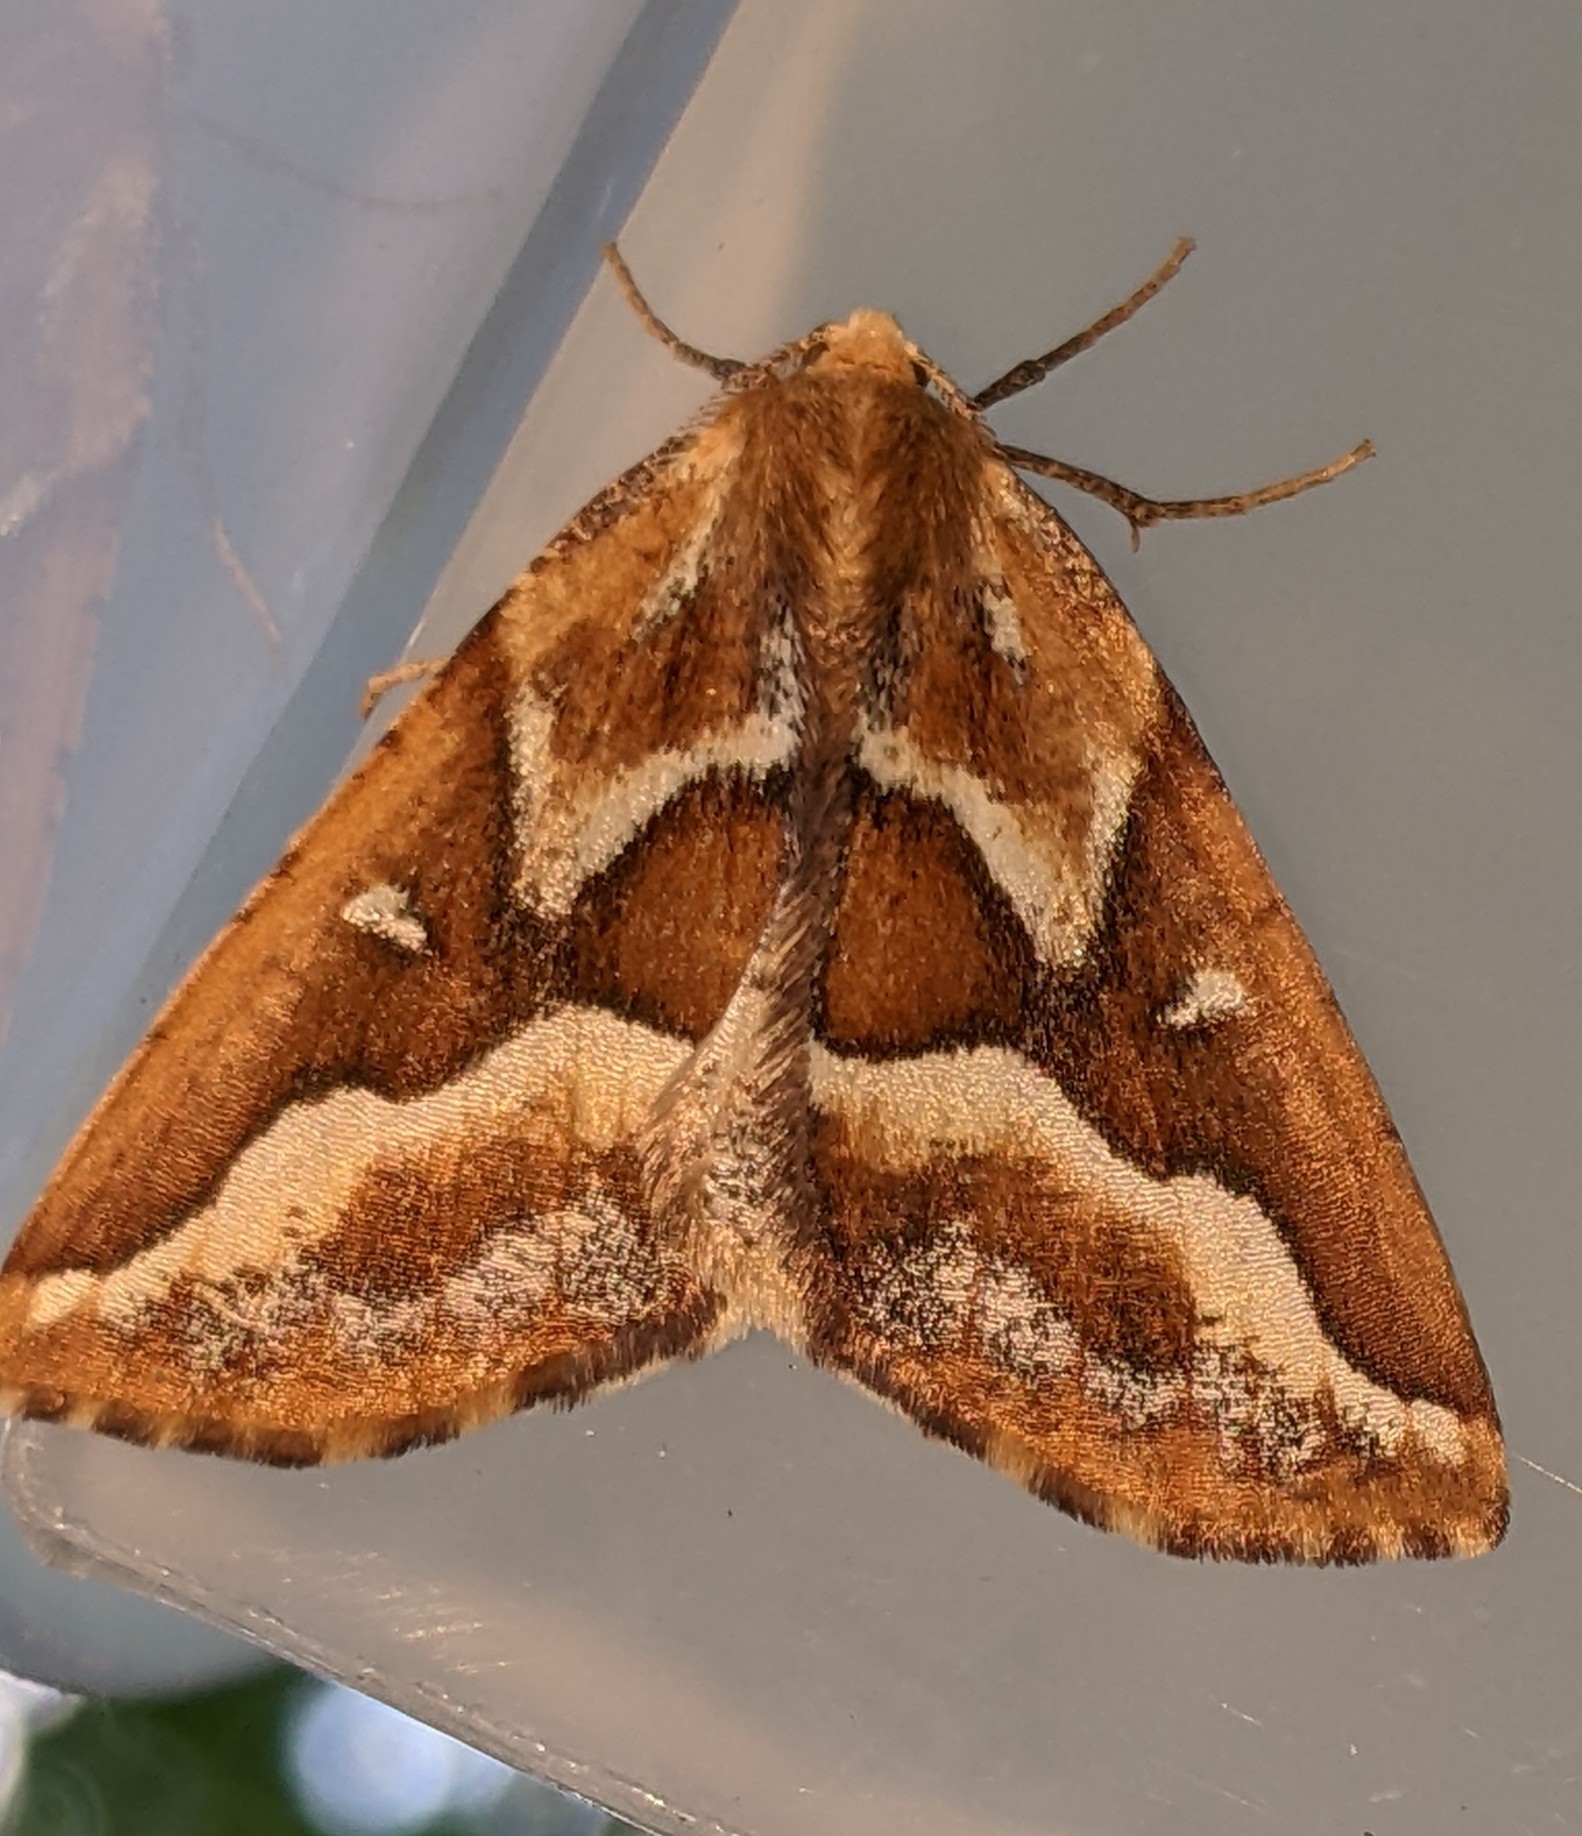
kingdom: Animalia
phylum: Arthropoda
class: Insecta
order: Lepidoptera
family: Geometridae
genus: Caripeta
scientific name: Caripeta angustiorata
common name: Brown pine looper
